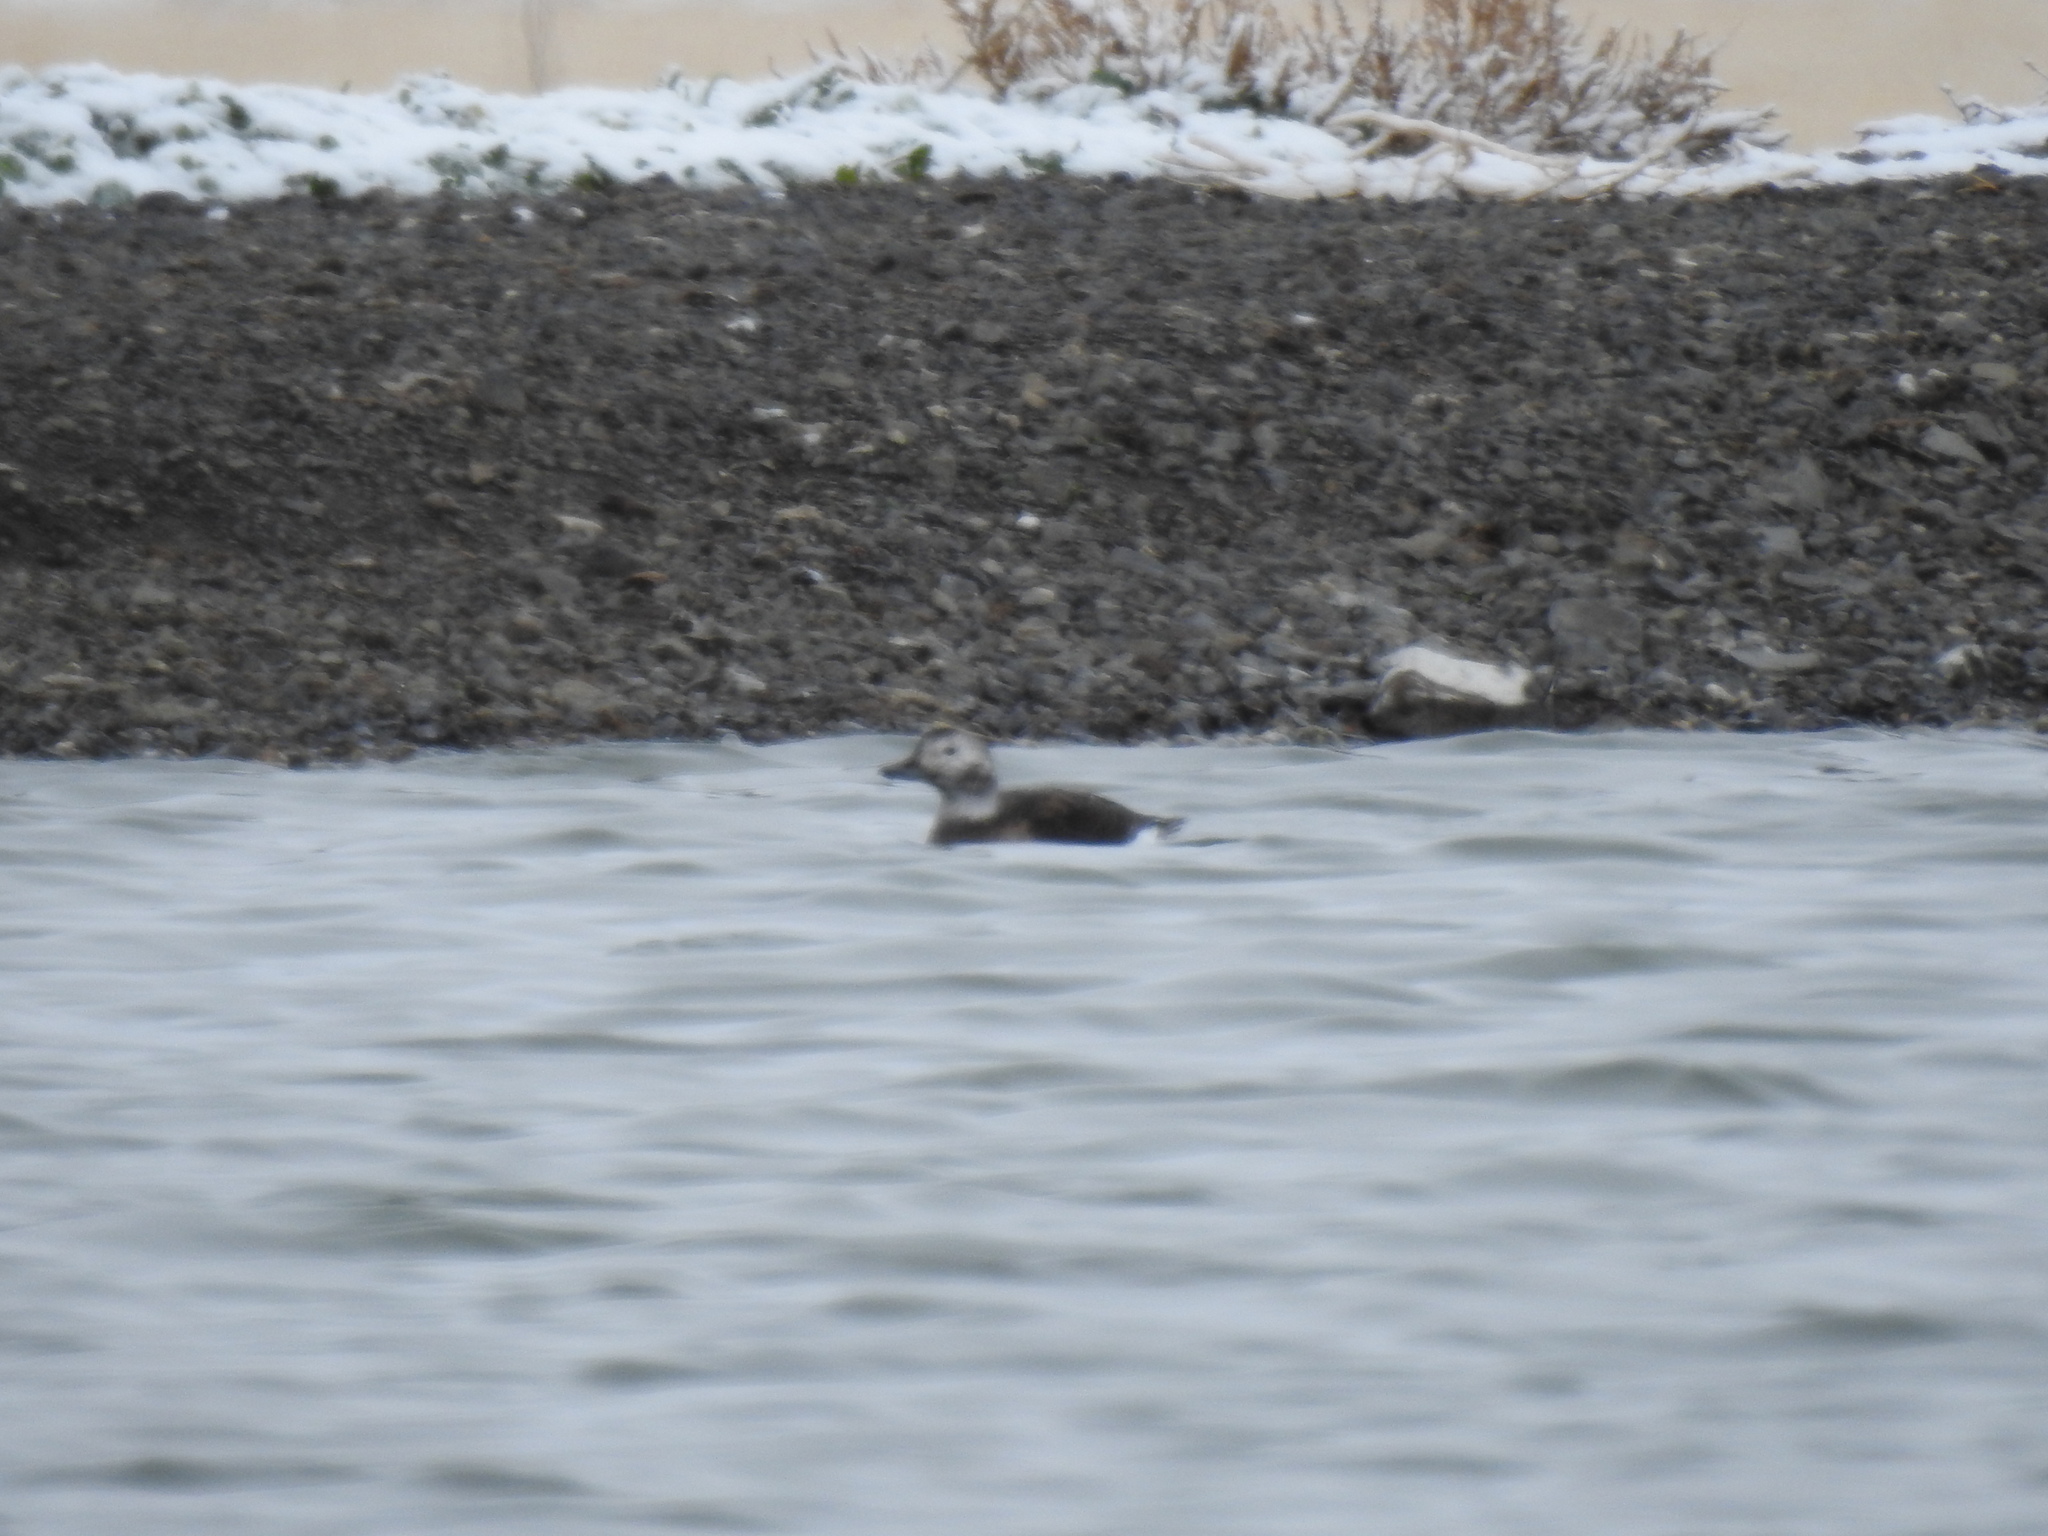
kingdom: Animalia
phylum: Chordata
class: Aves
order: Anseriformes
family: Anatidae
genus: Clangula
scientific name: Clangula hyemalis
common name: Long-tailed duck
